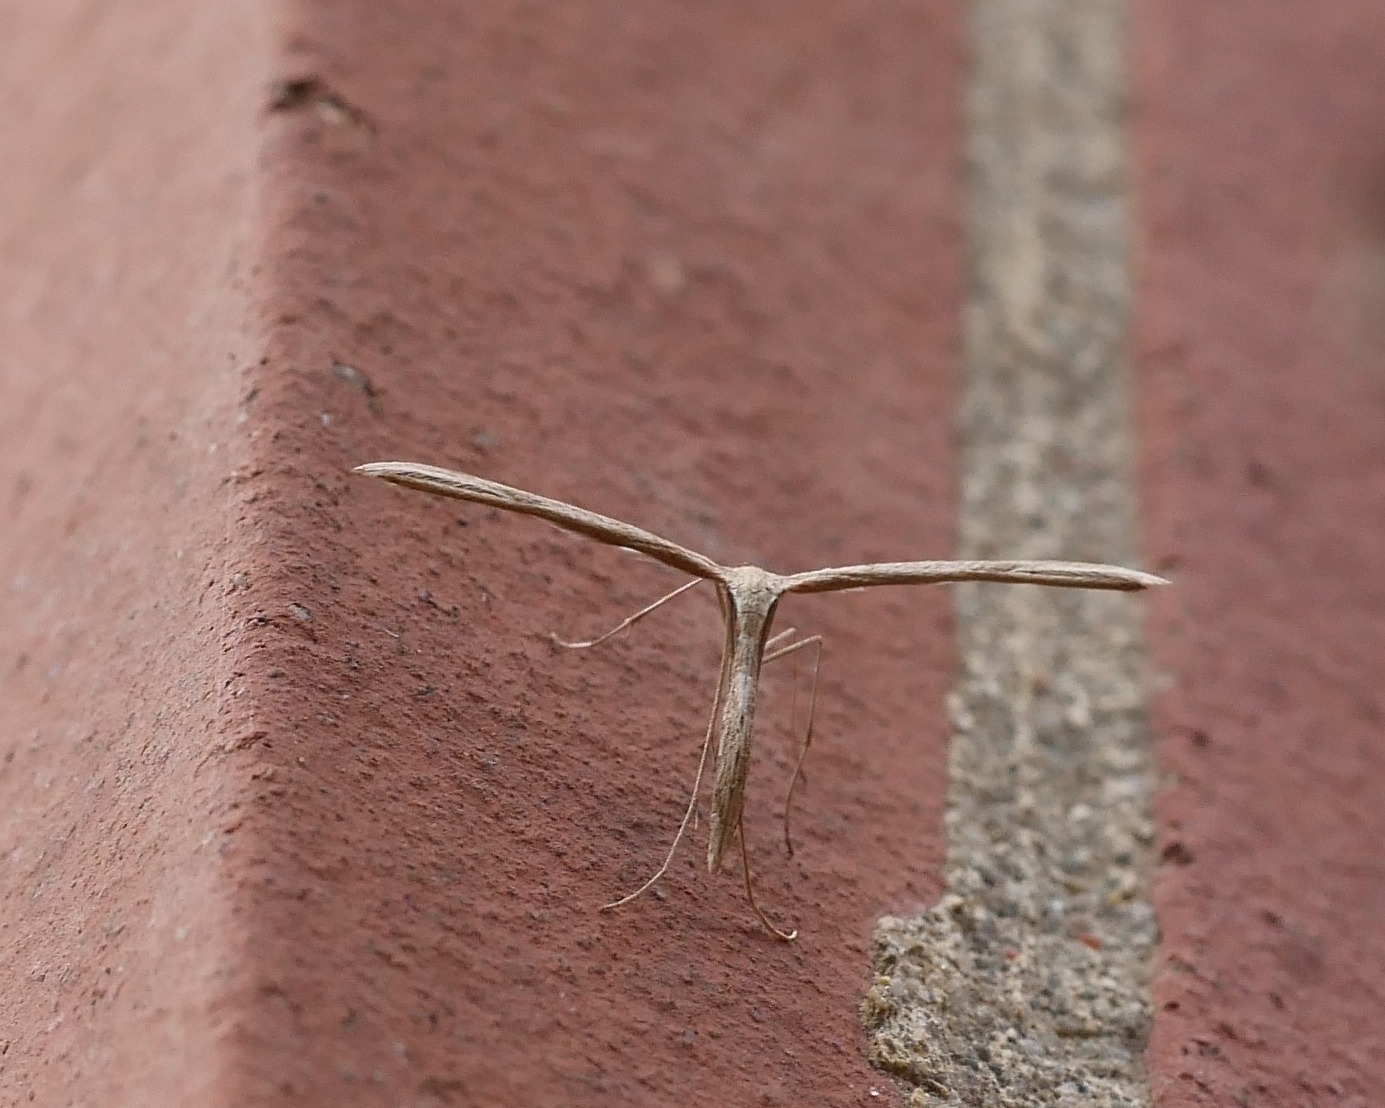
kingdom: Animalia
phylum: Arthropoda
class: Insecta
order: Lepidoptera
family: Pterophoridae
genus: Emmelina
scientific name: Emmelina monodactyla
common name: Common plume
